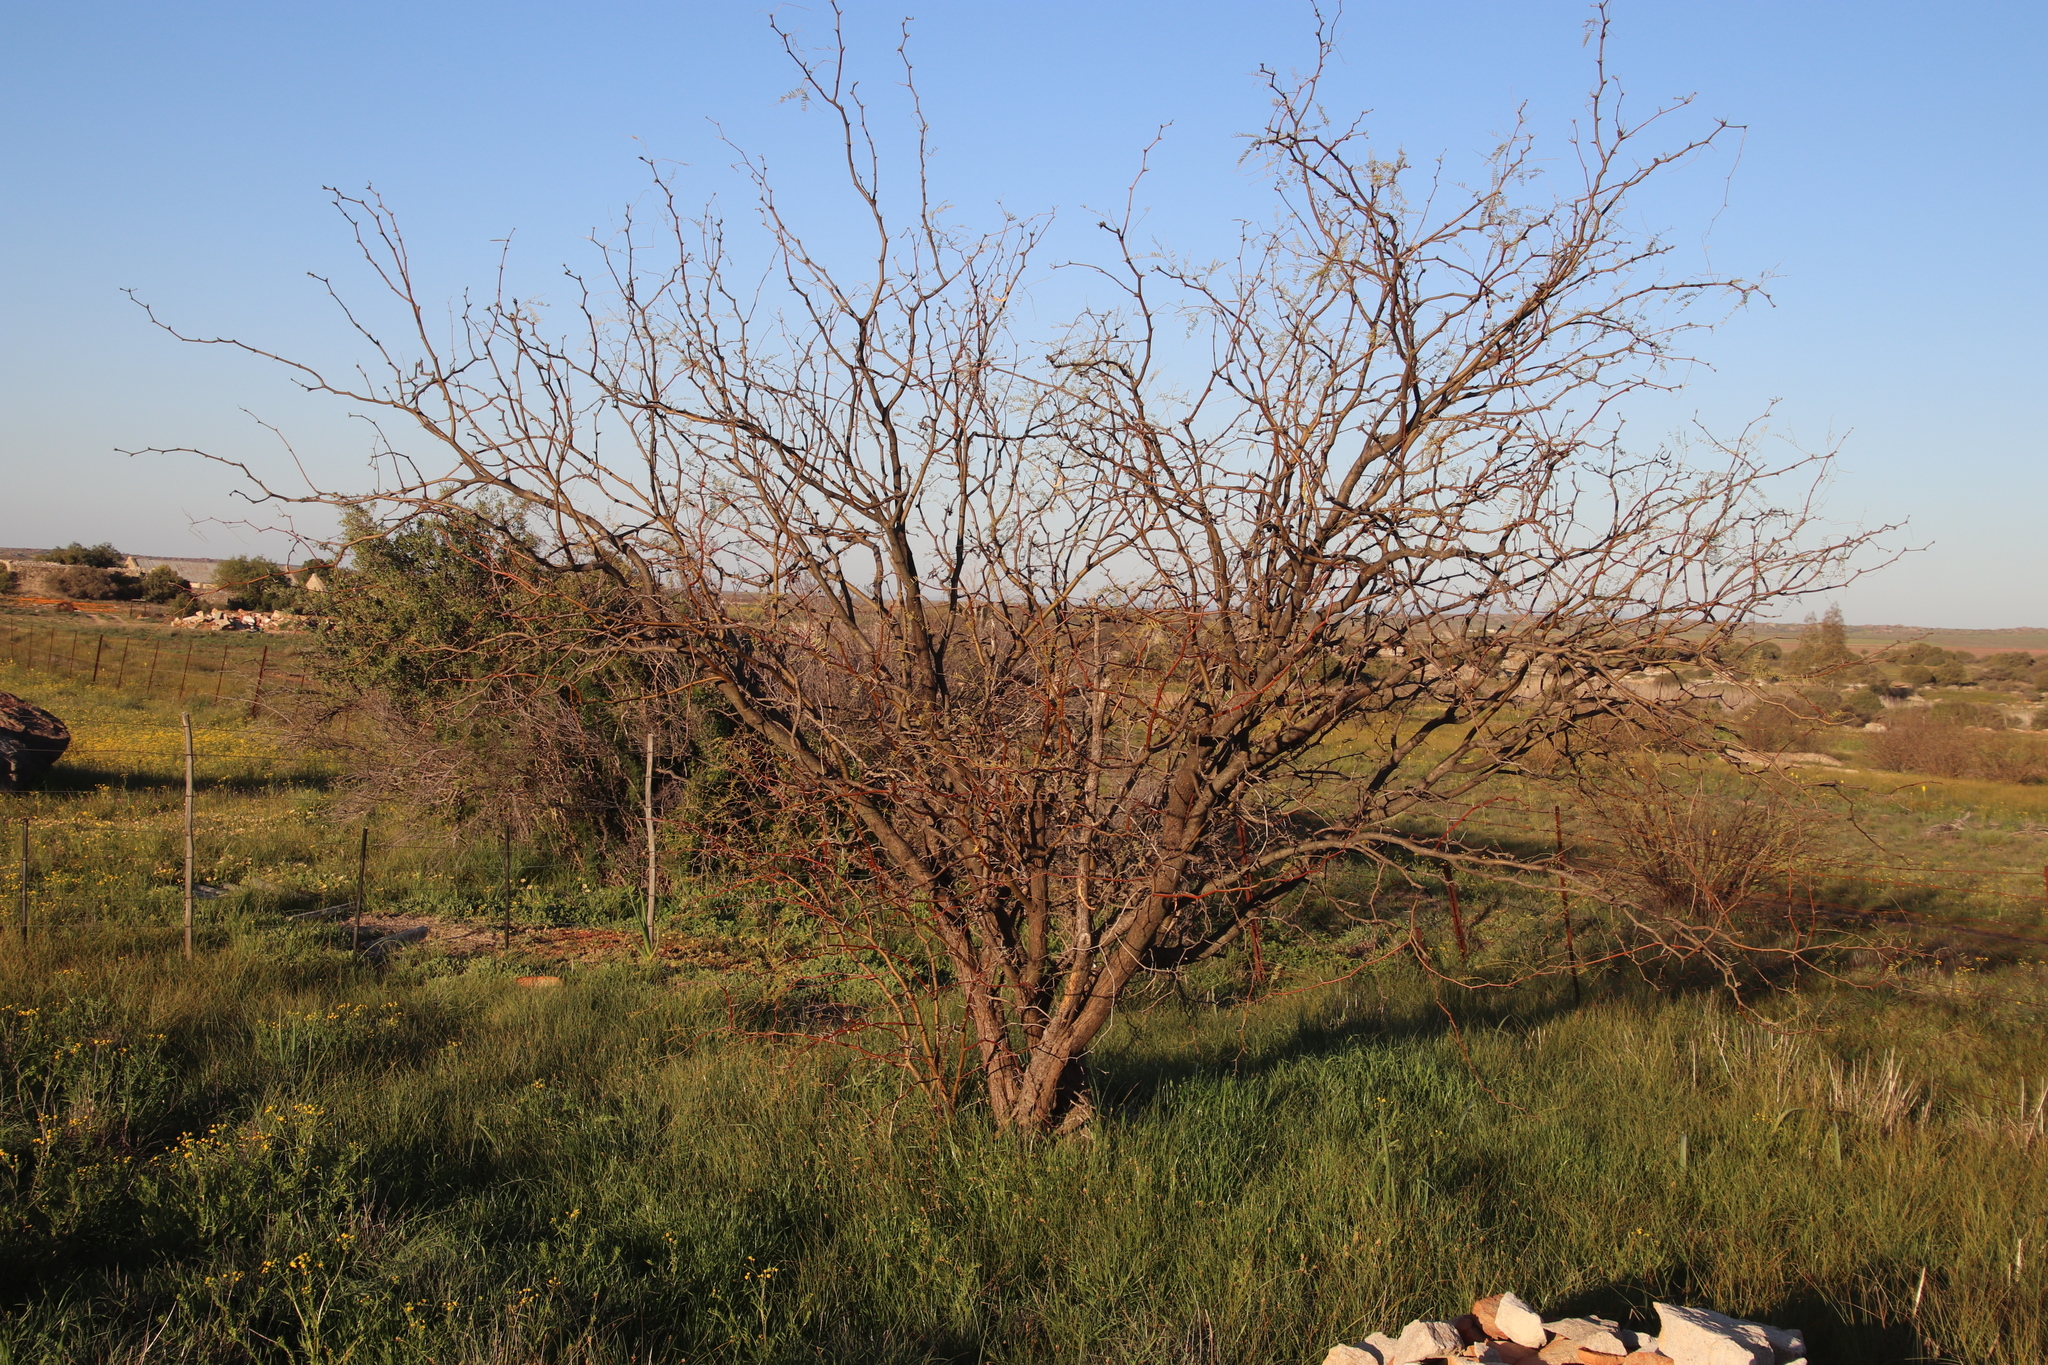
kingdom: Plantae
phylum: Tracheophyta
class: Magnoliopsida
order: Fabales
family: Fabaceae
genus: Prosopis
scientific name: Prosopis pubescens
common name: Screw-bean
